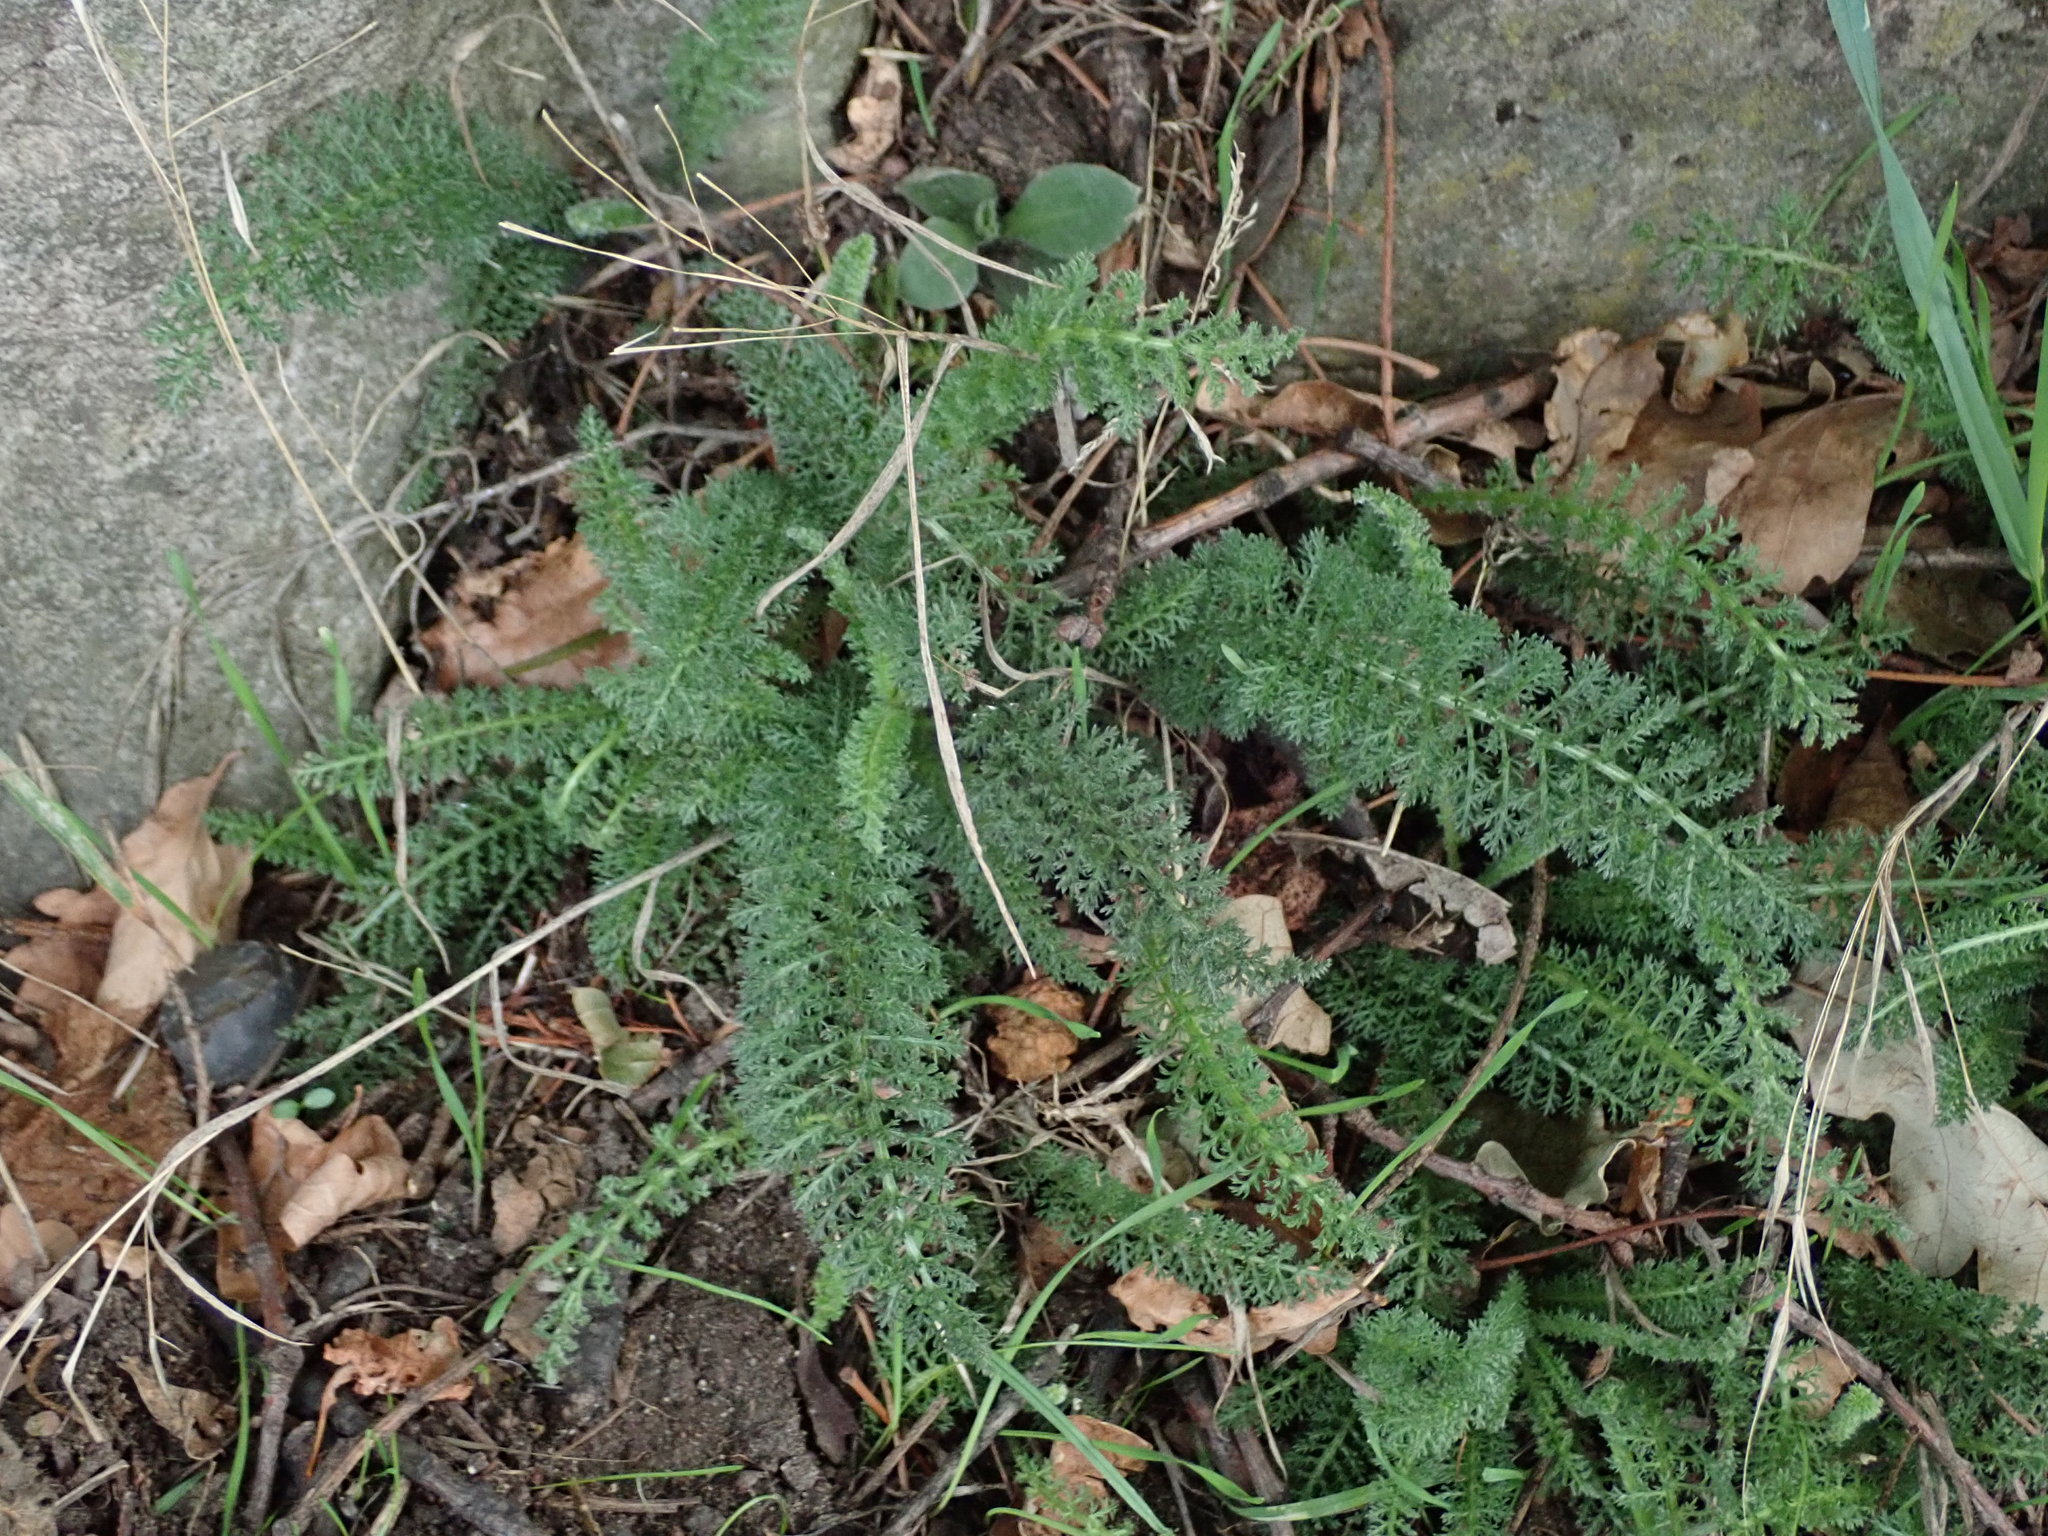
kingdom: Plantae
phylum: Tracheophyta
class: Magnoliopsida
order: Asterales
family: Asteraceae
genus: Achillea
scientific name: Achillea millefolium
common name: Yarrow
